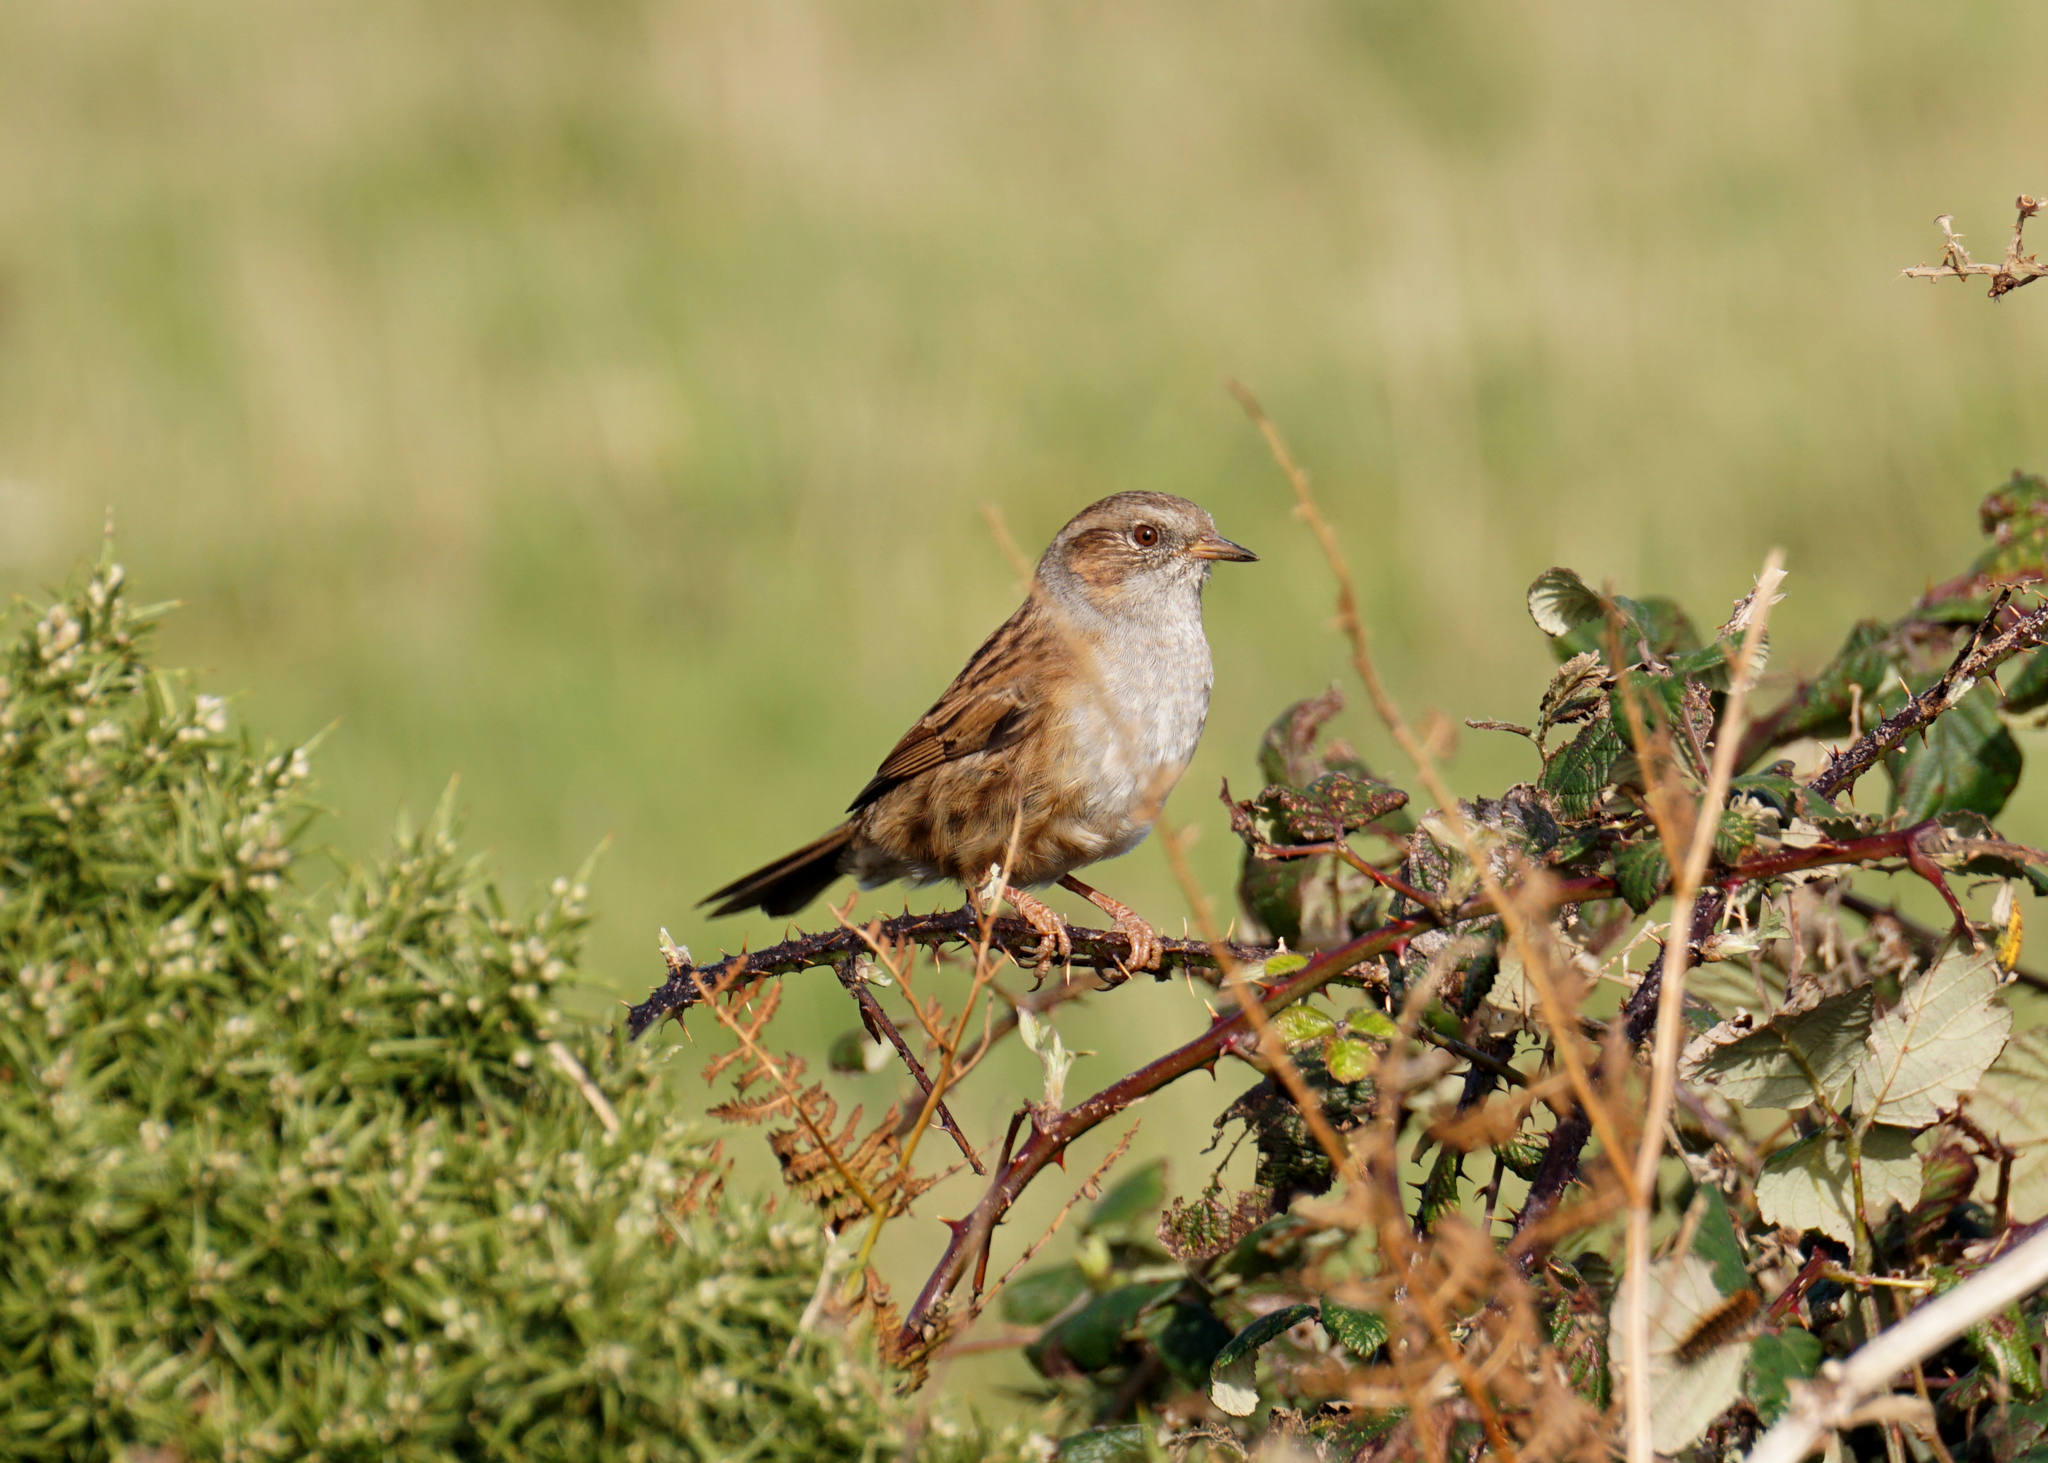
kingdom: Animalia
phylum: Chordata
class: Aves
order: Passeriformes
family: Prunellidae
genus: Prunella
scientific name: Prunella modularis
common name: Dunnock
